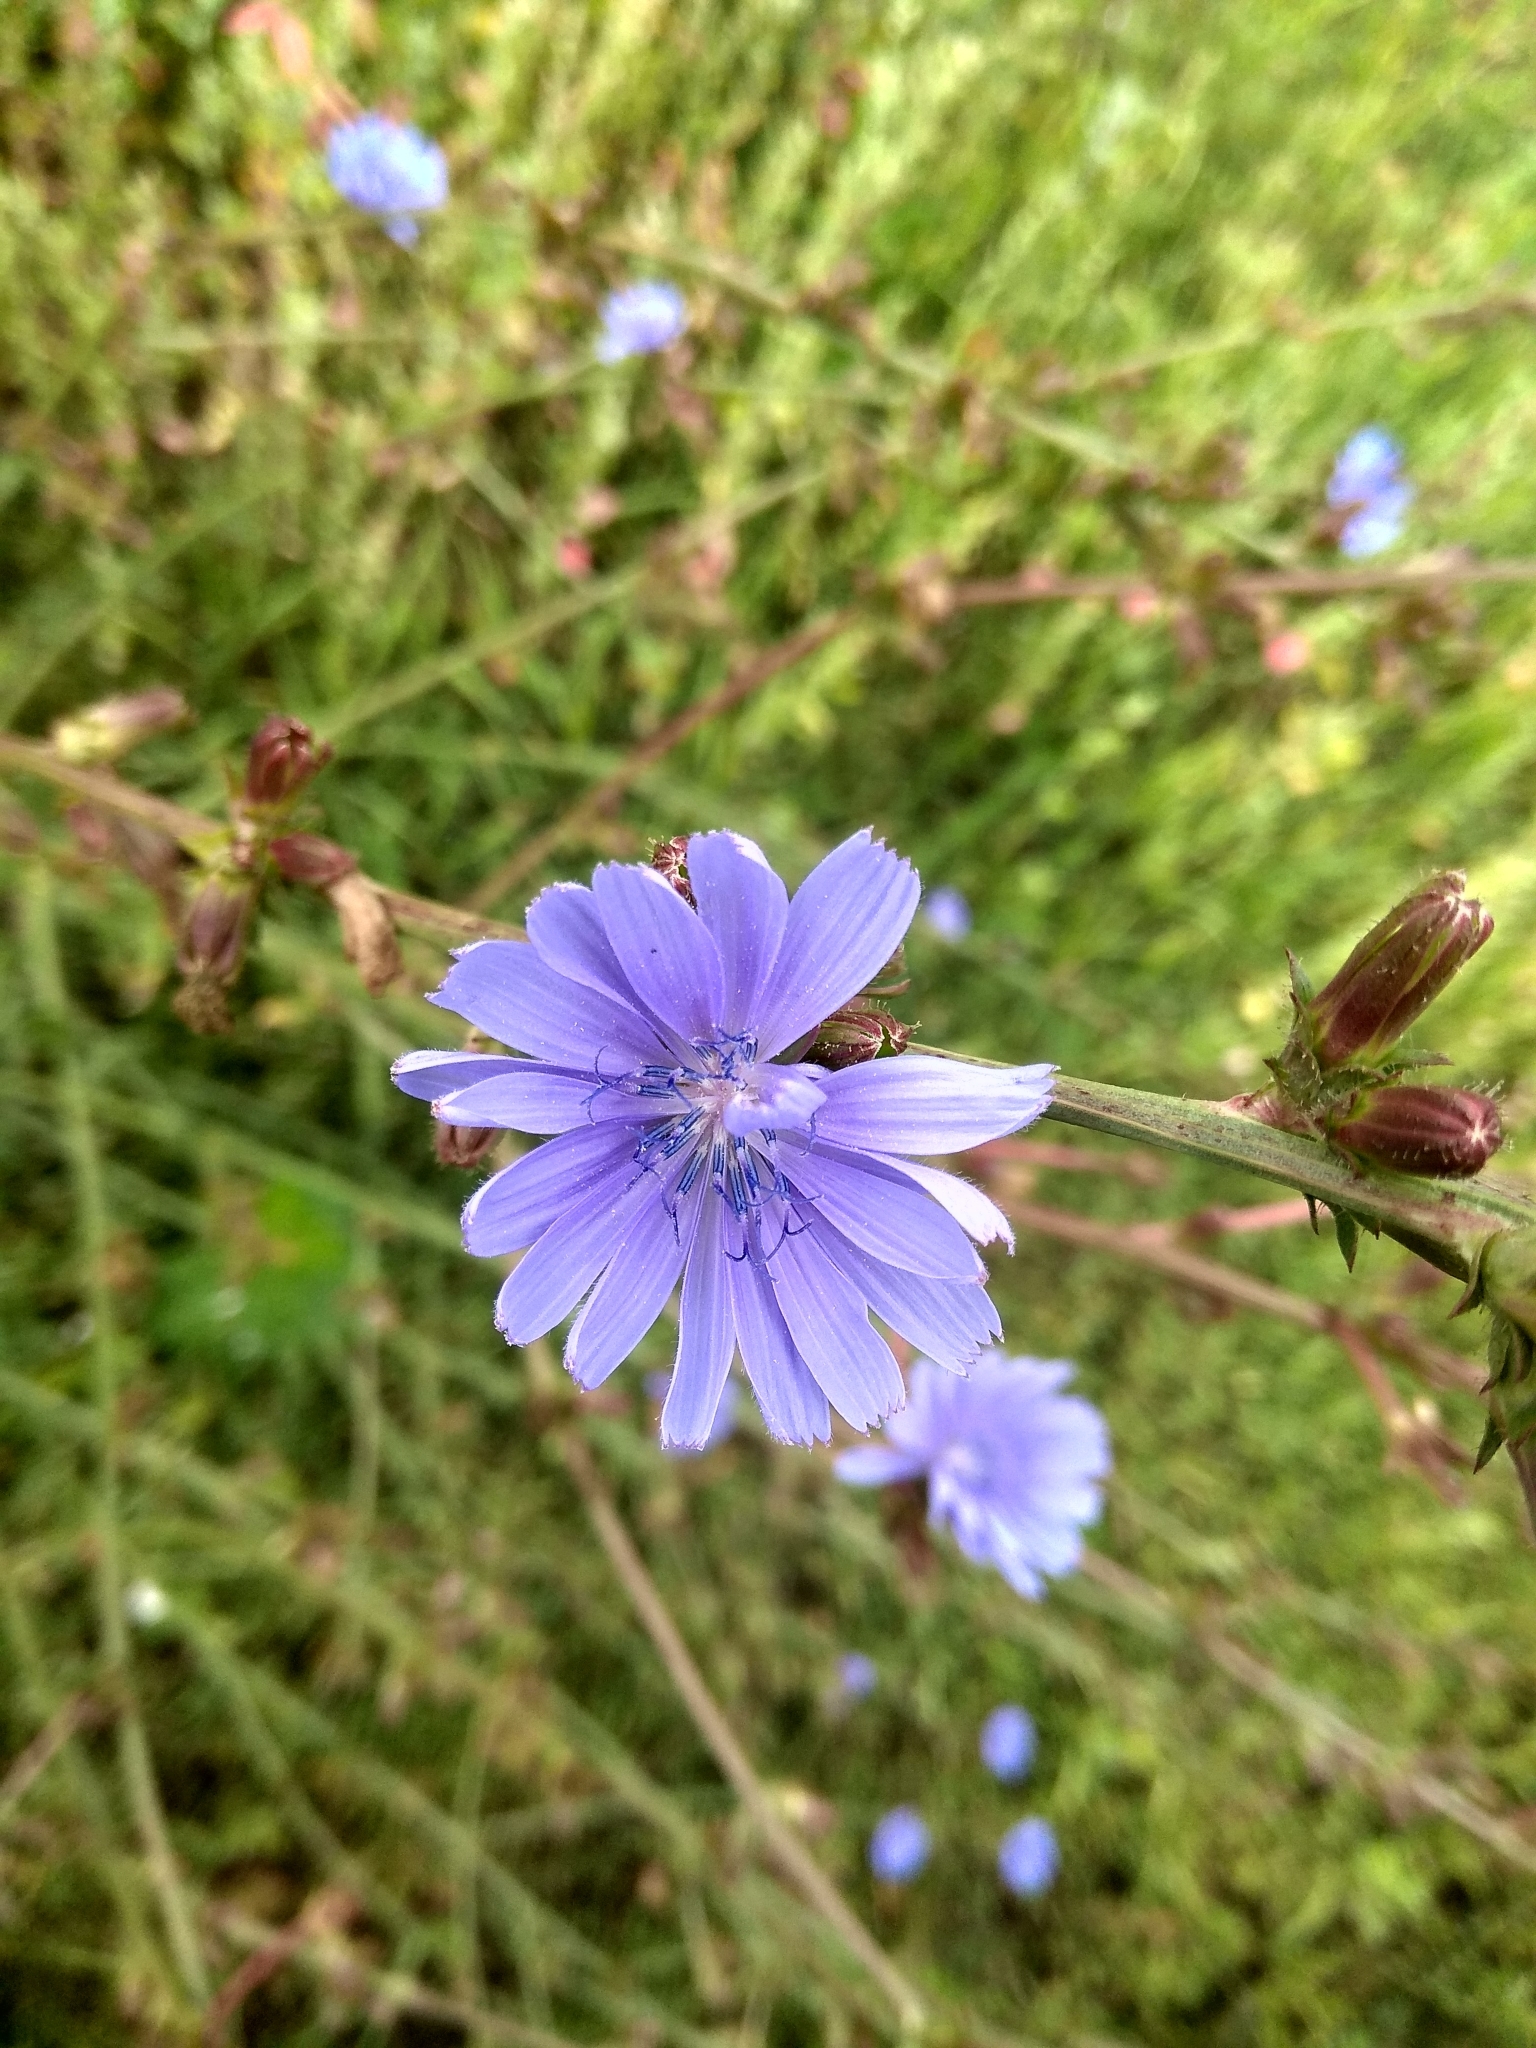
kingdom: Plantae
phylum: Tracheophyta
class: Magnoliopsida
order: Asterales
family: Asteraceae
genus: Cichorium
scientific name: Cichorium intybus
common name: Chicory
